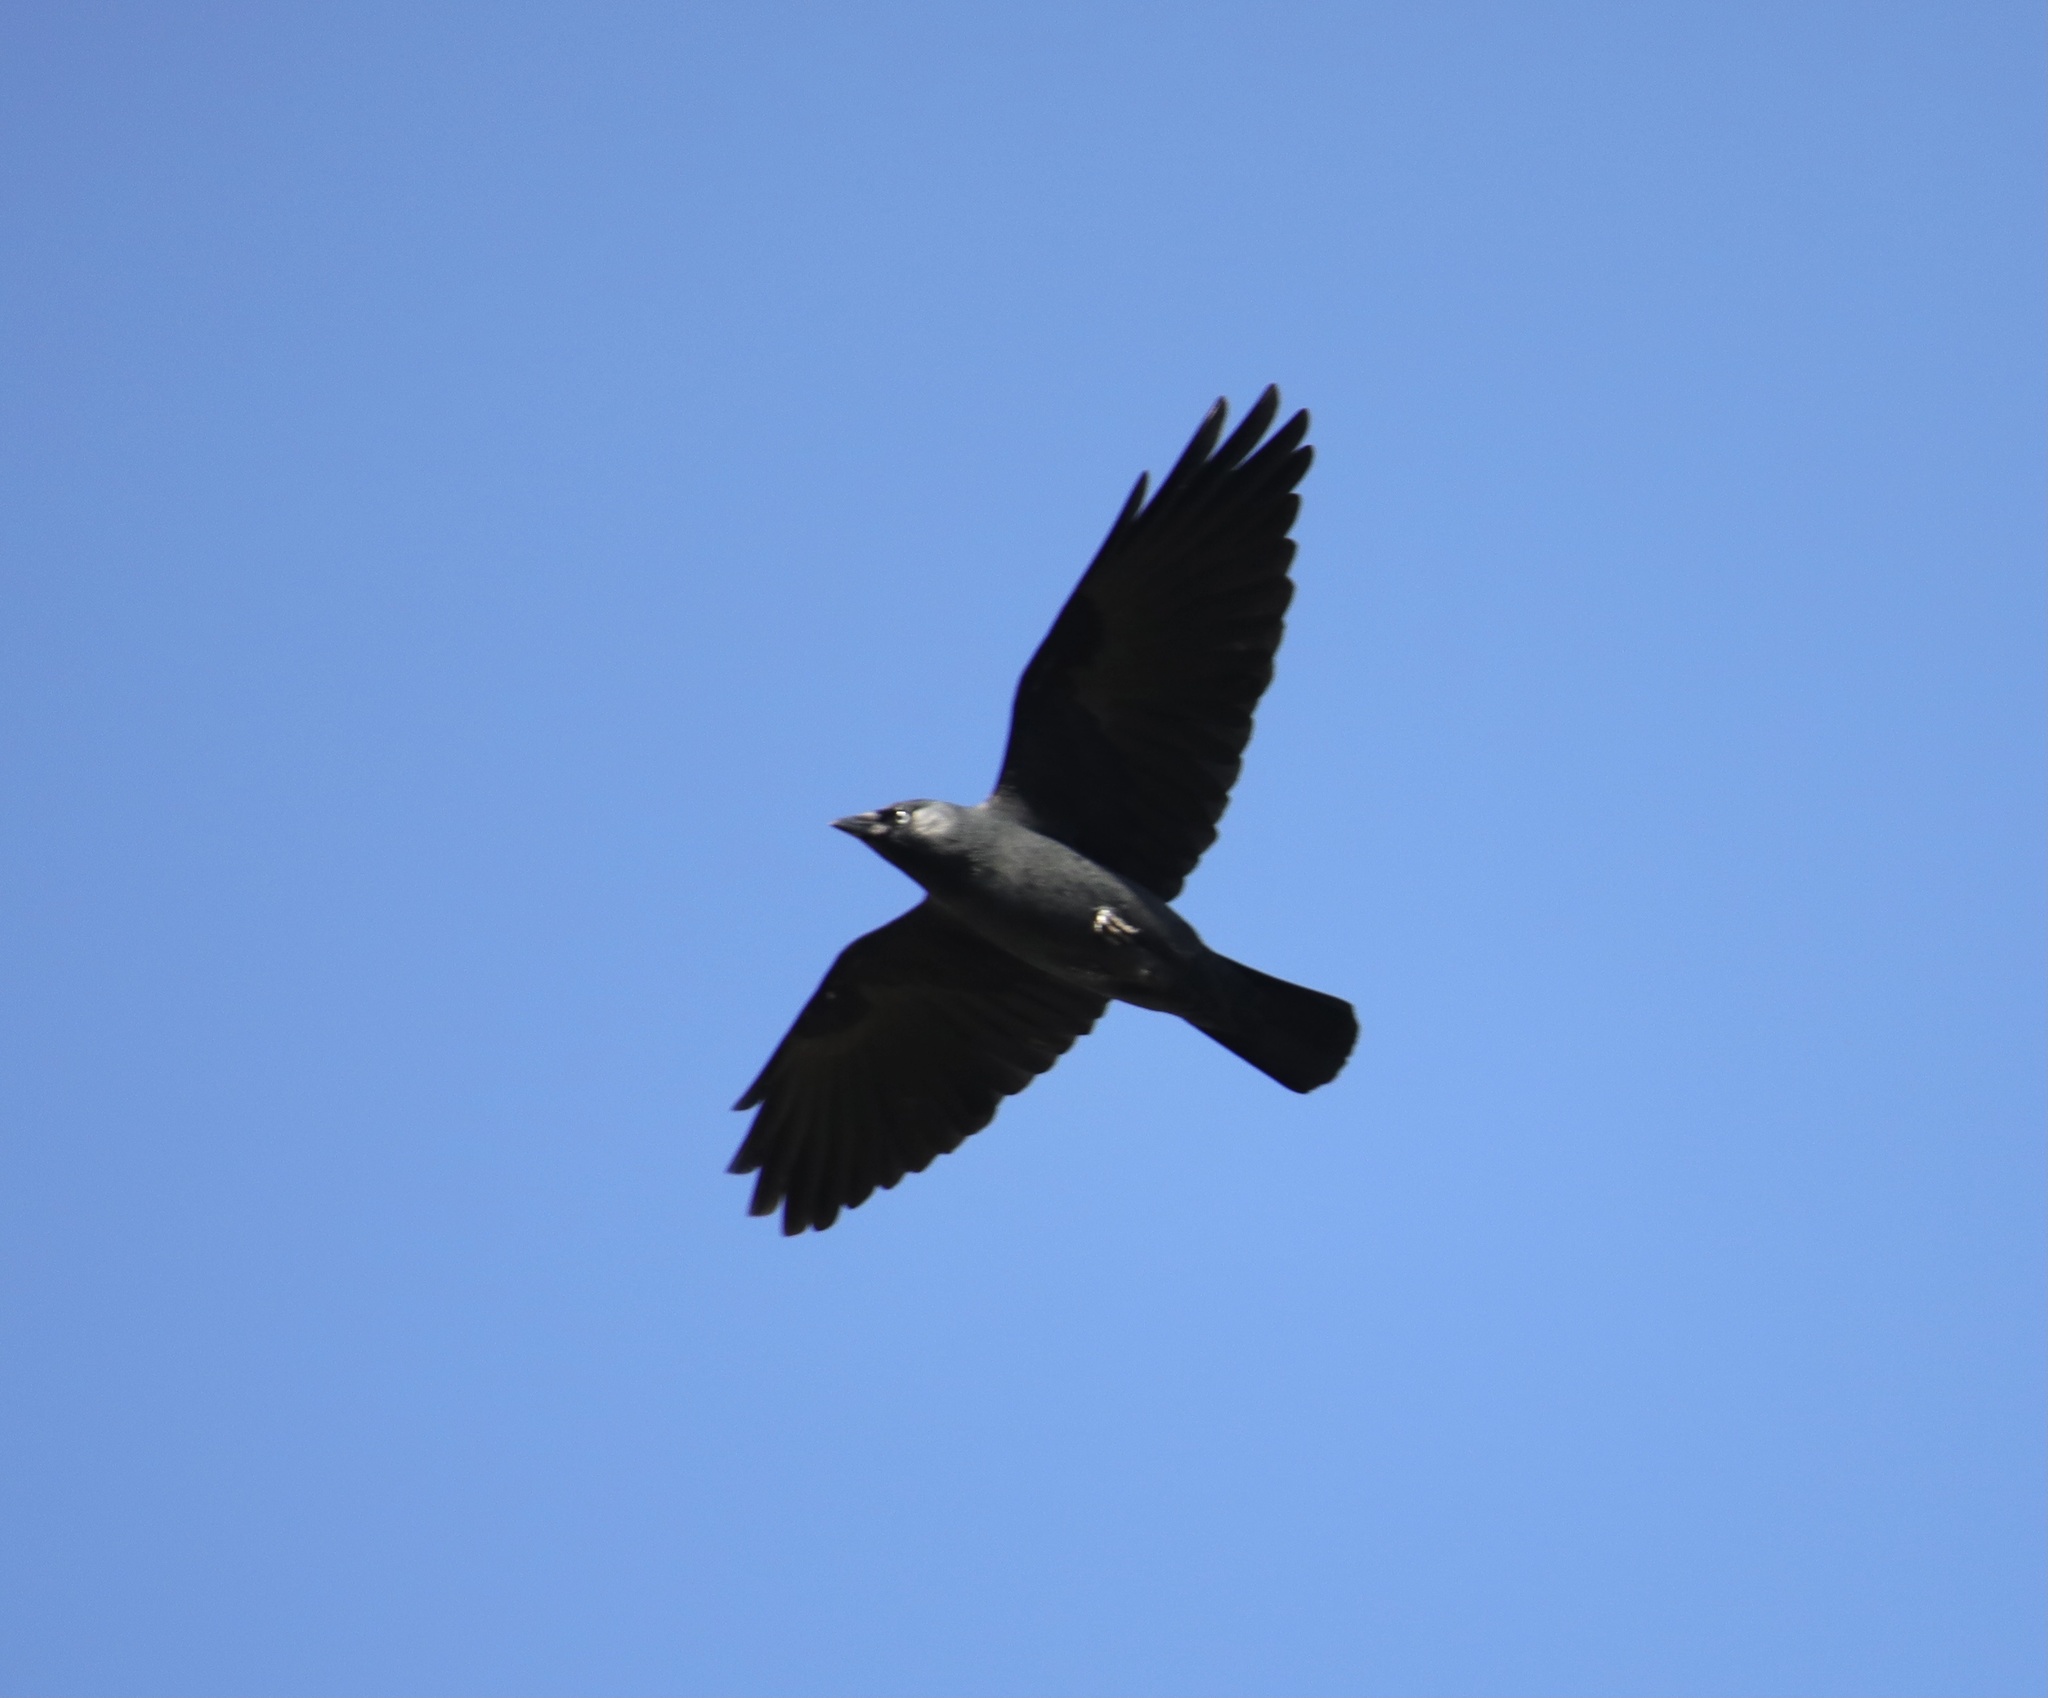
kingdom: Animalia
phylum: Chordata
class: Aves
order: Passeriformes
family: Corvidae
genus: Coloeus
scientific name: Coloeus monedula
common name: Western jackdaw
